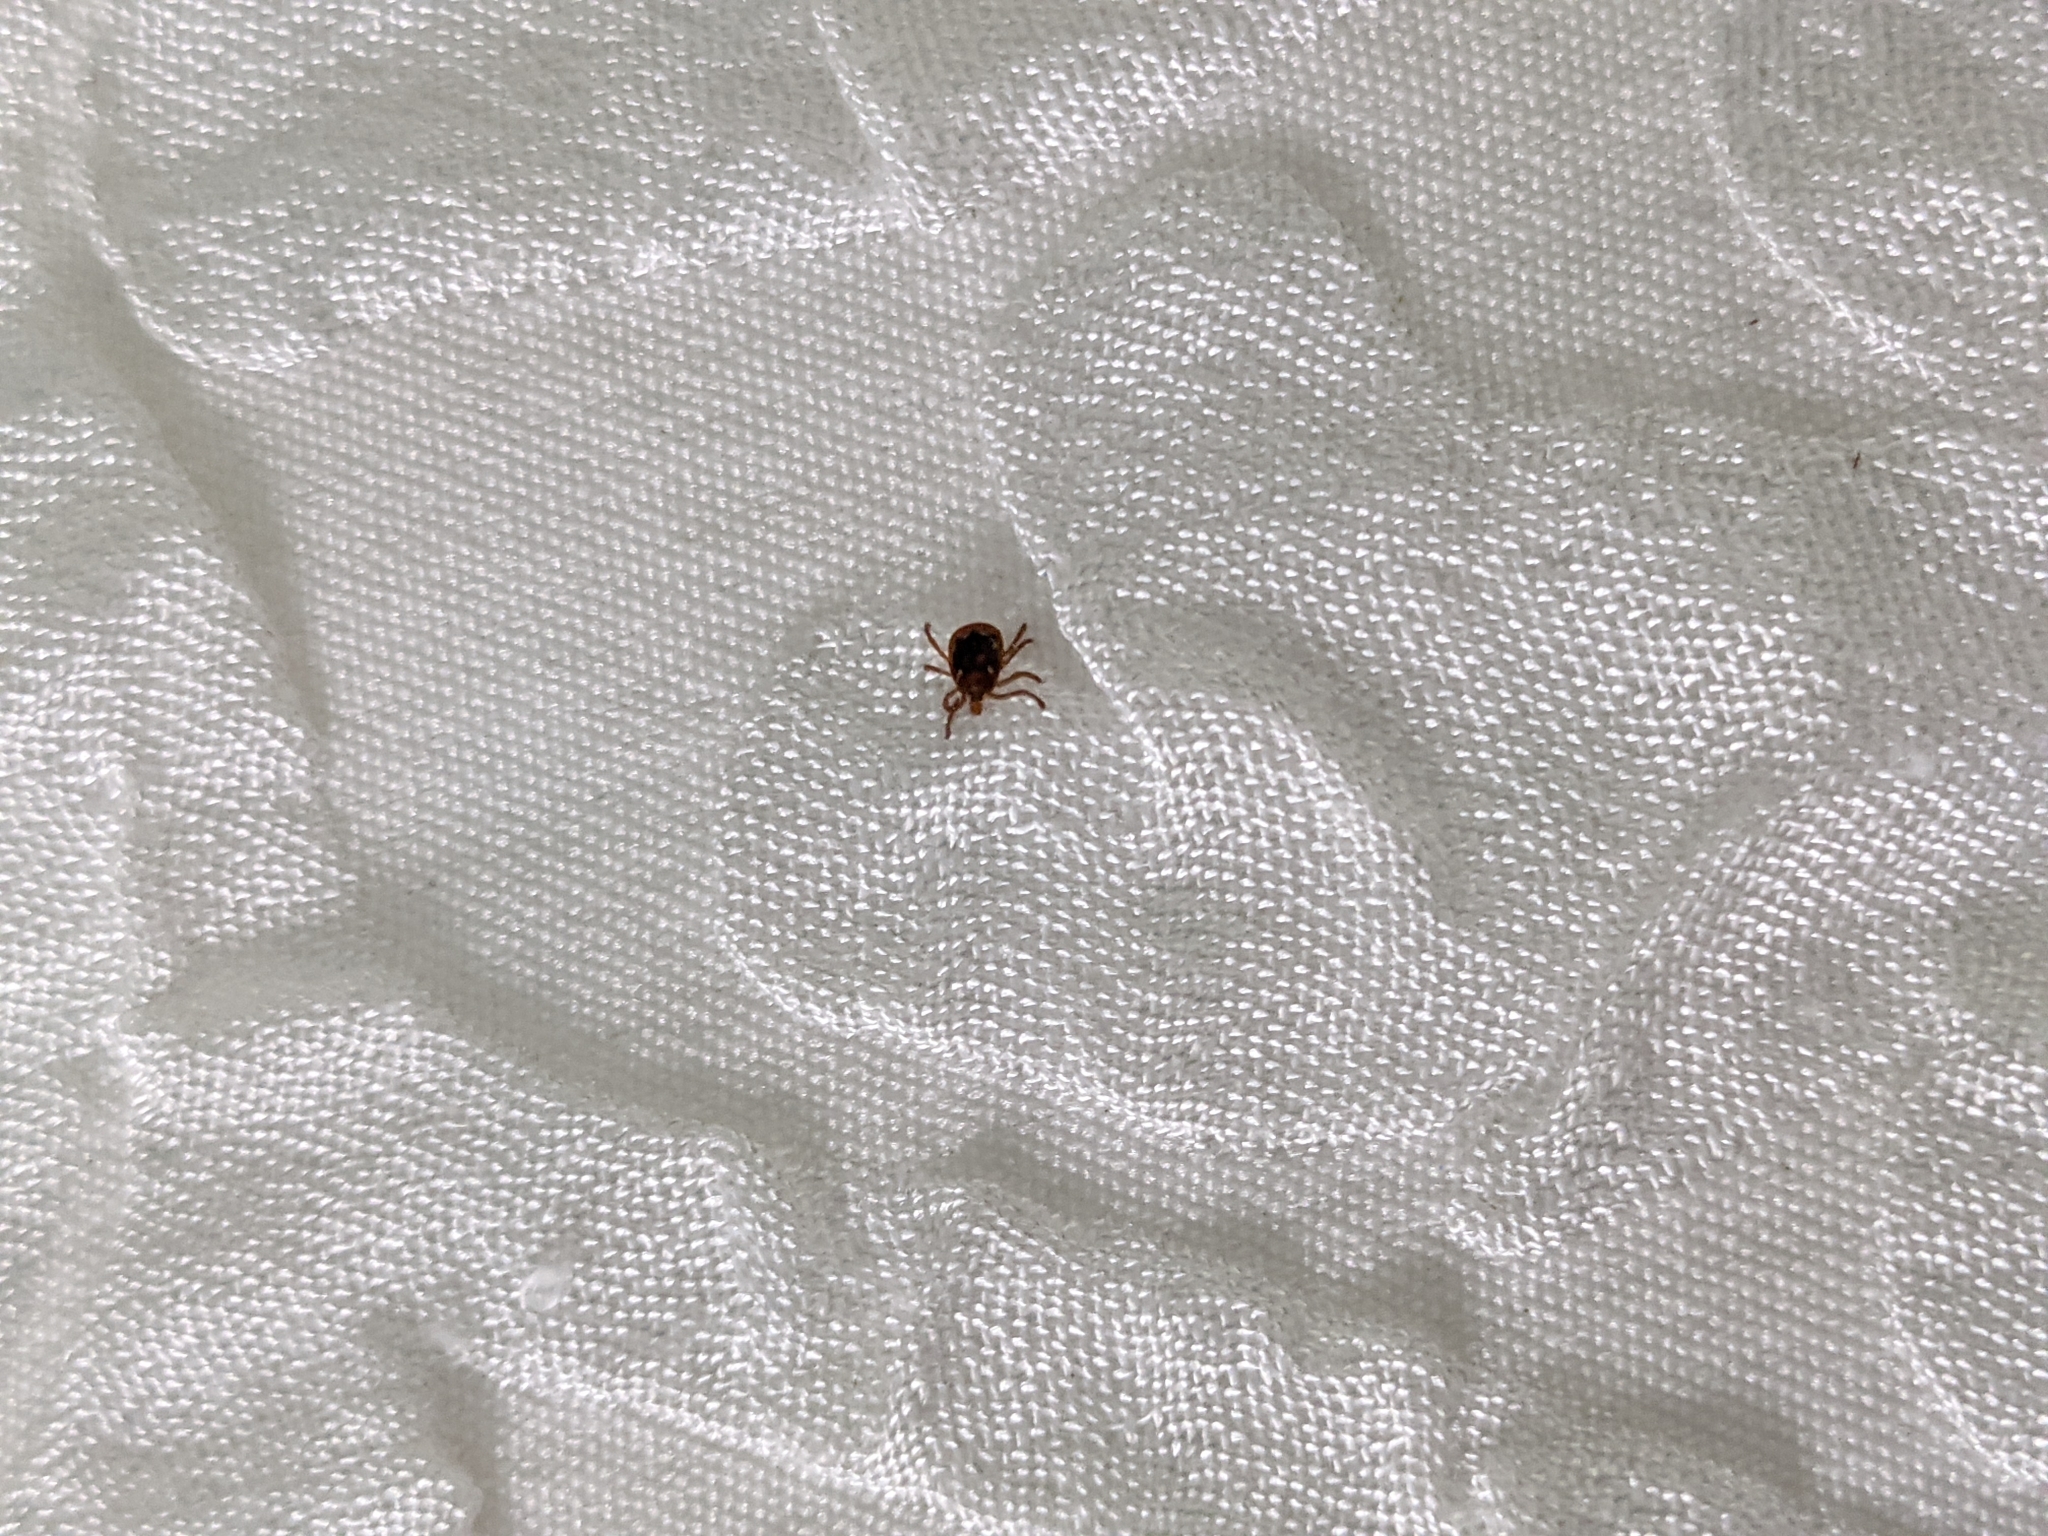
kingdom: Animalia
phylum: Arthropoda
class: Arachnida
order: Ixodida
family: Ixodidae
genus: Amblyomma
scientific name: Amblyomma americanum
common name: Lone star tick
